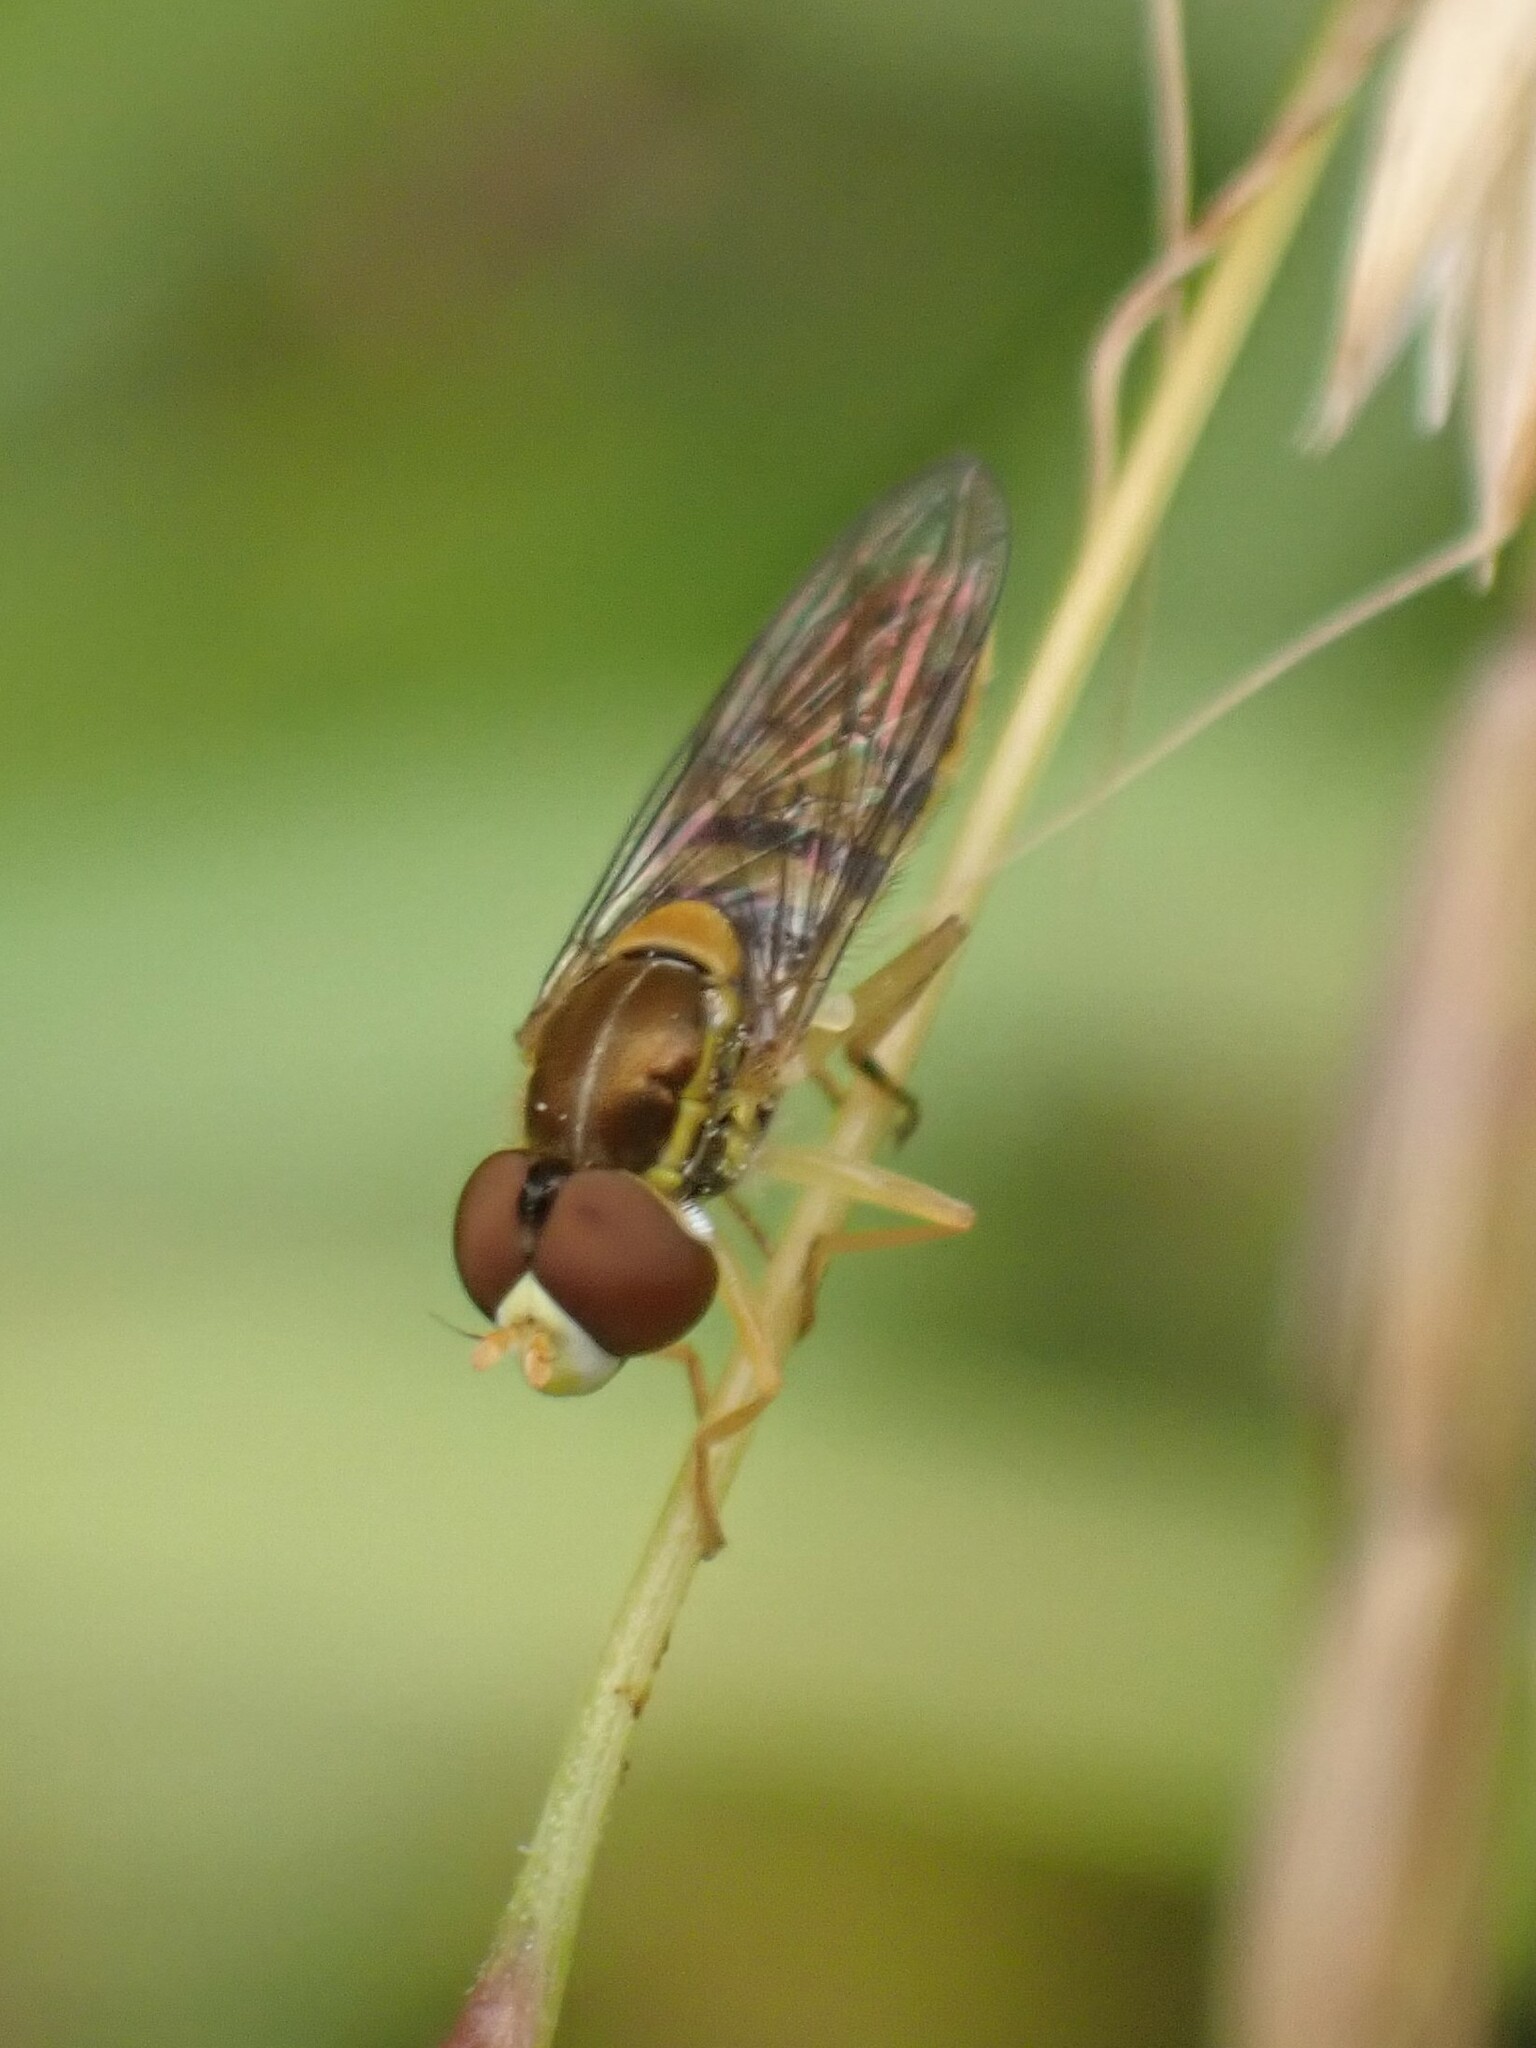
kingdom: Animalia
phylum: Arthropoda
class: Insecta
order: Diptera
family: Syrphidae
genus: Toxomerus
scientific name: Toxomerus marginatus
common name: Syrphid fly
